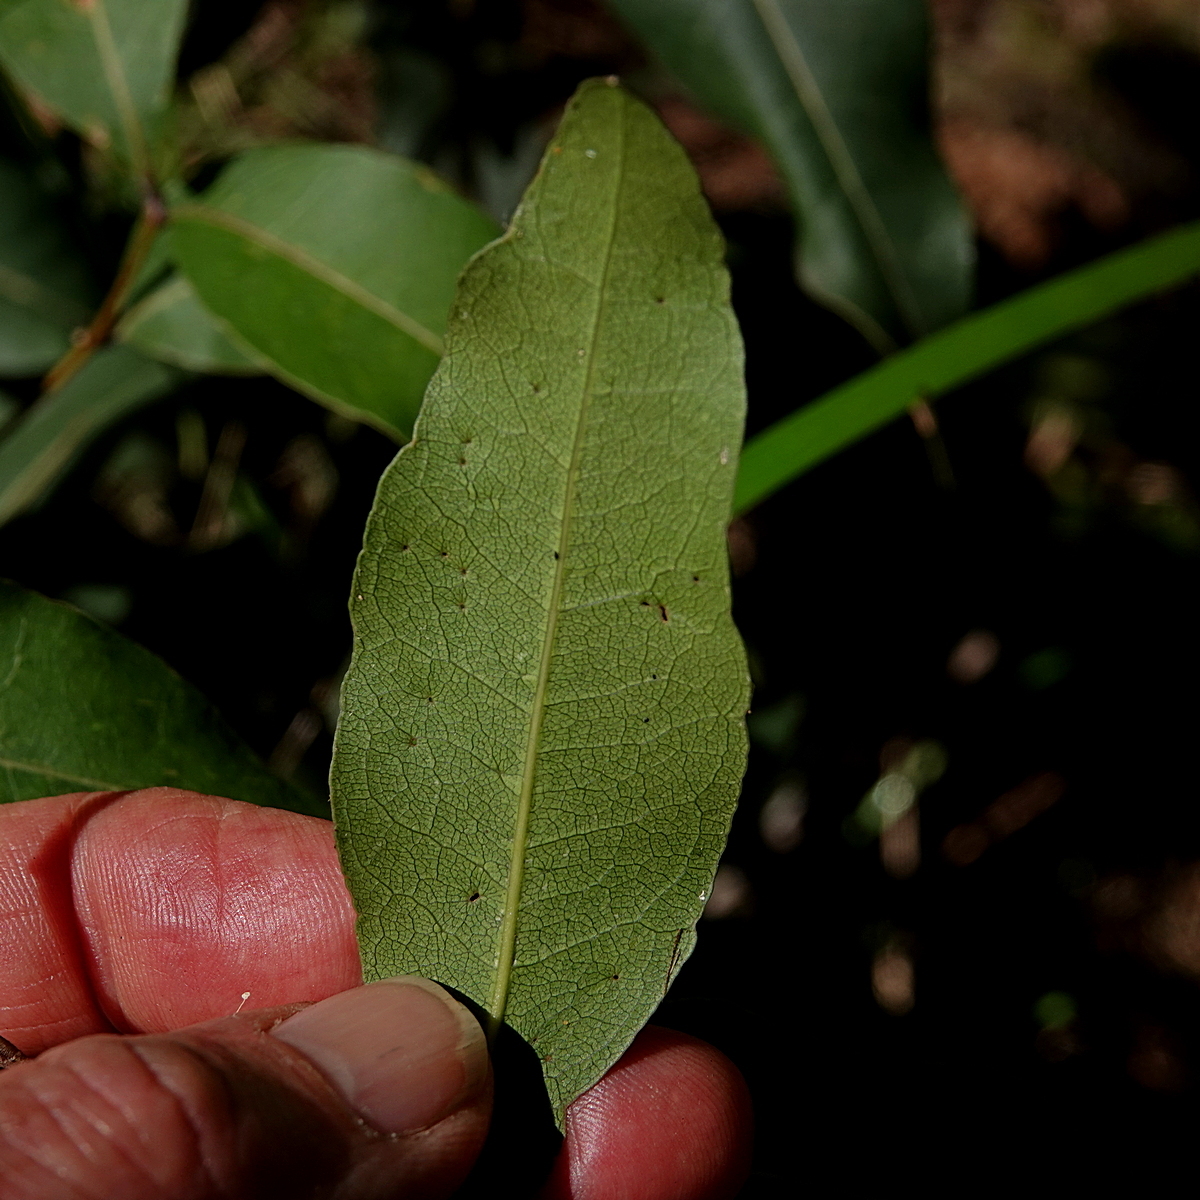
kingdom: Plantae
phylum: Tracheophyta
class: Magnoliopsida
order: Lamiales
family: Oleaceae
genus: Notelaea
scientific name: Notelaea venosa
